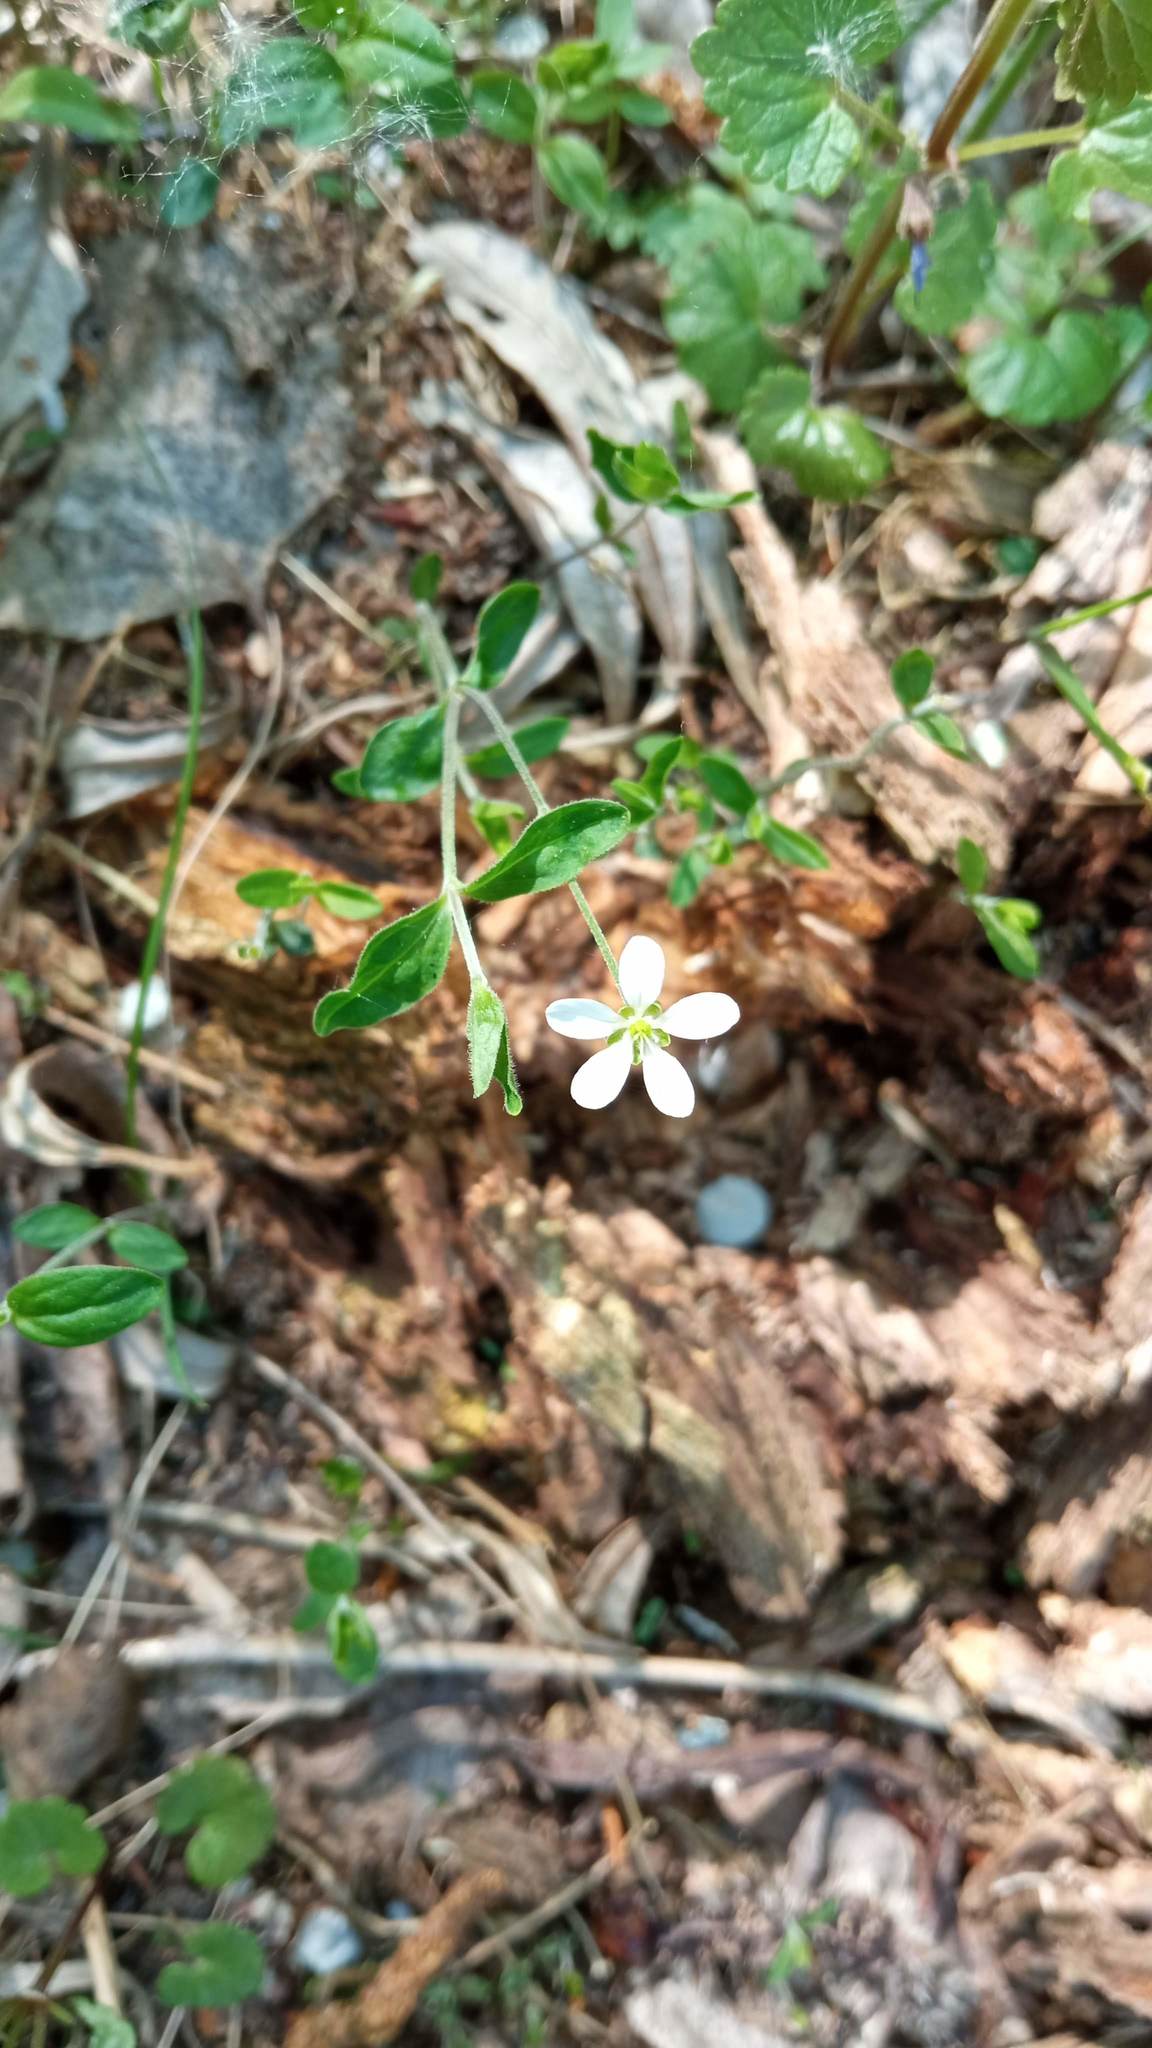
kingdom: Plantae
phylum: Tracheophyta
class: Magnoliopsida
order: Caryophyllales
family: Caryophyllaceae
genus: Moehringia
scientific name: Moehringia lateriflora
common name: Blunt-leaved sandwort
